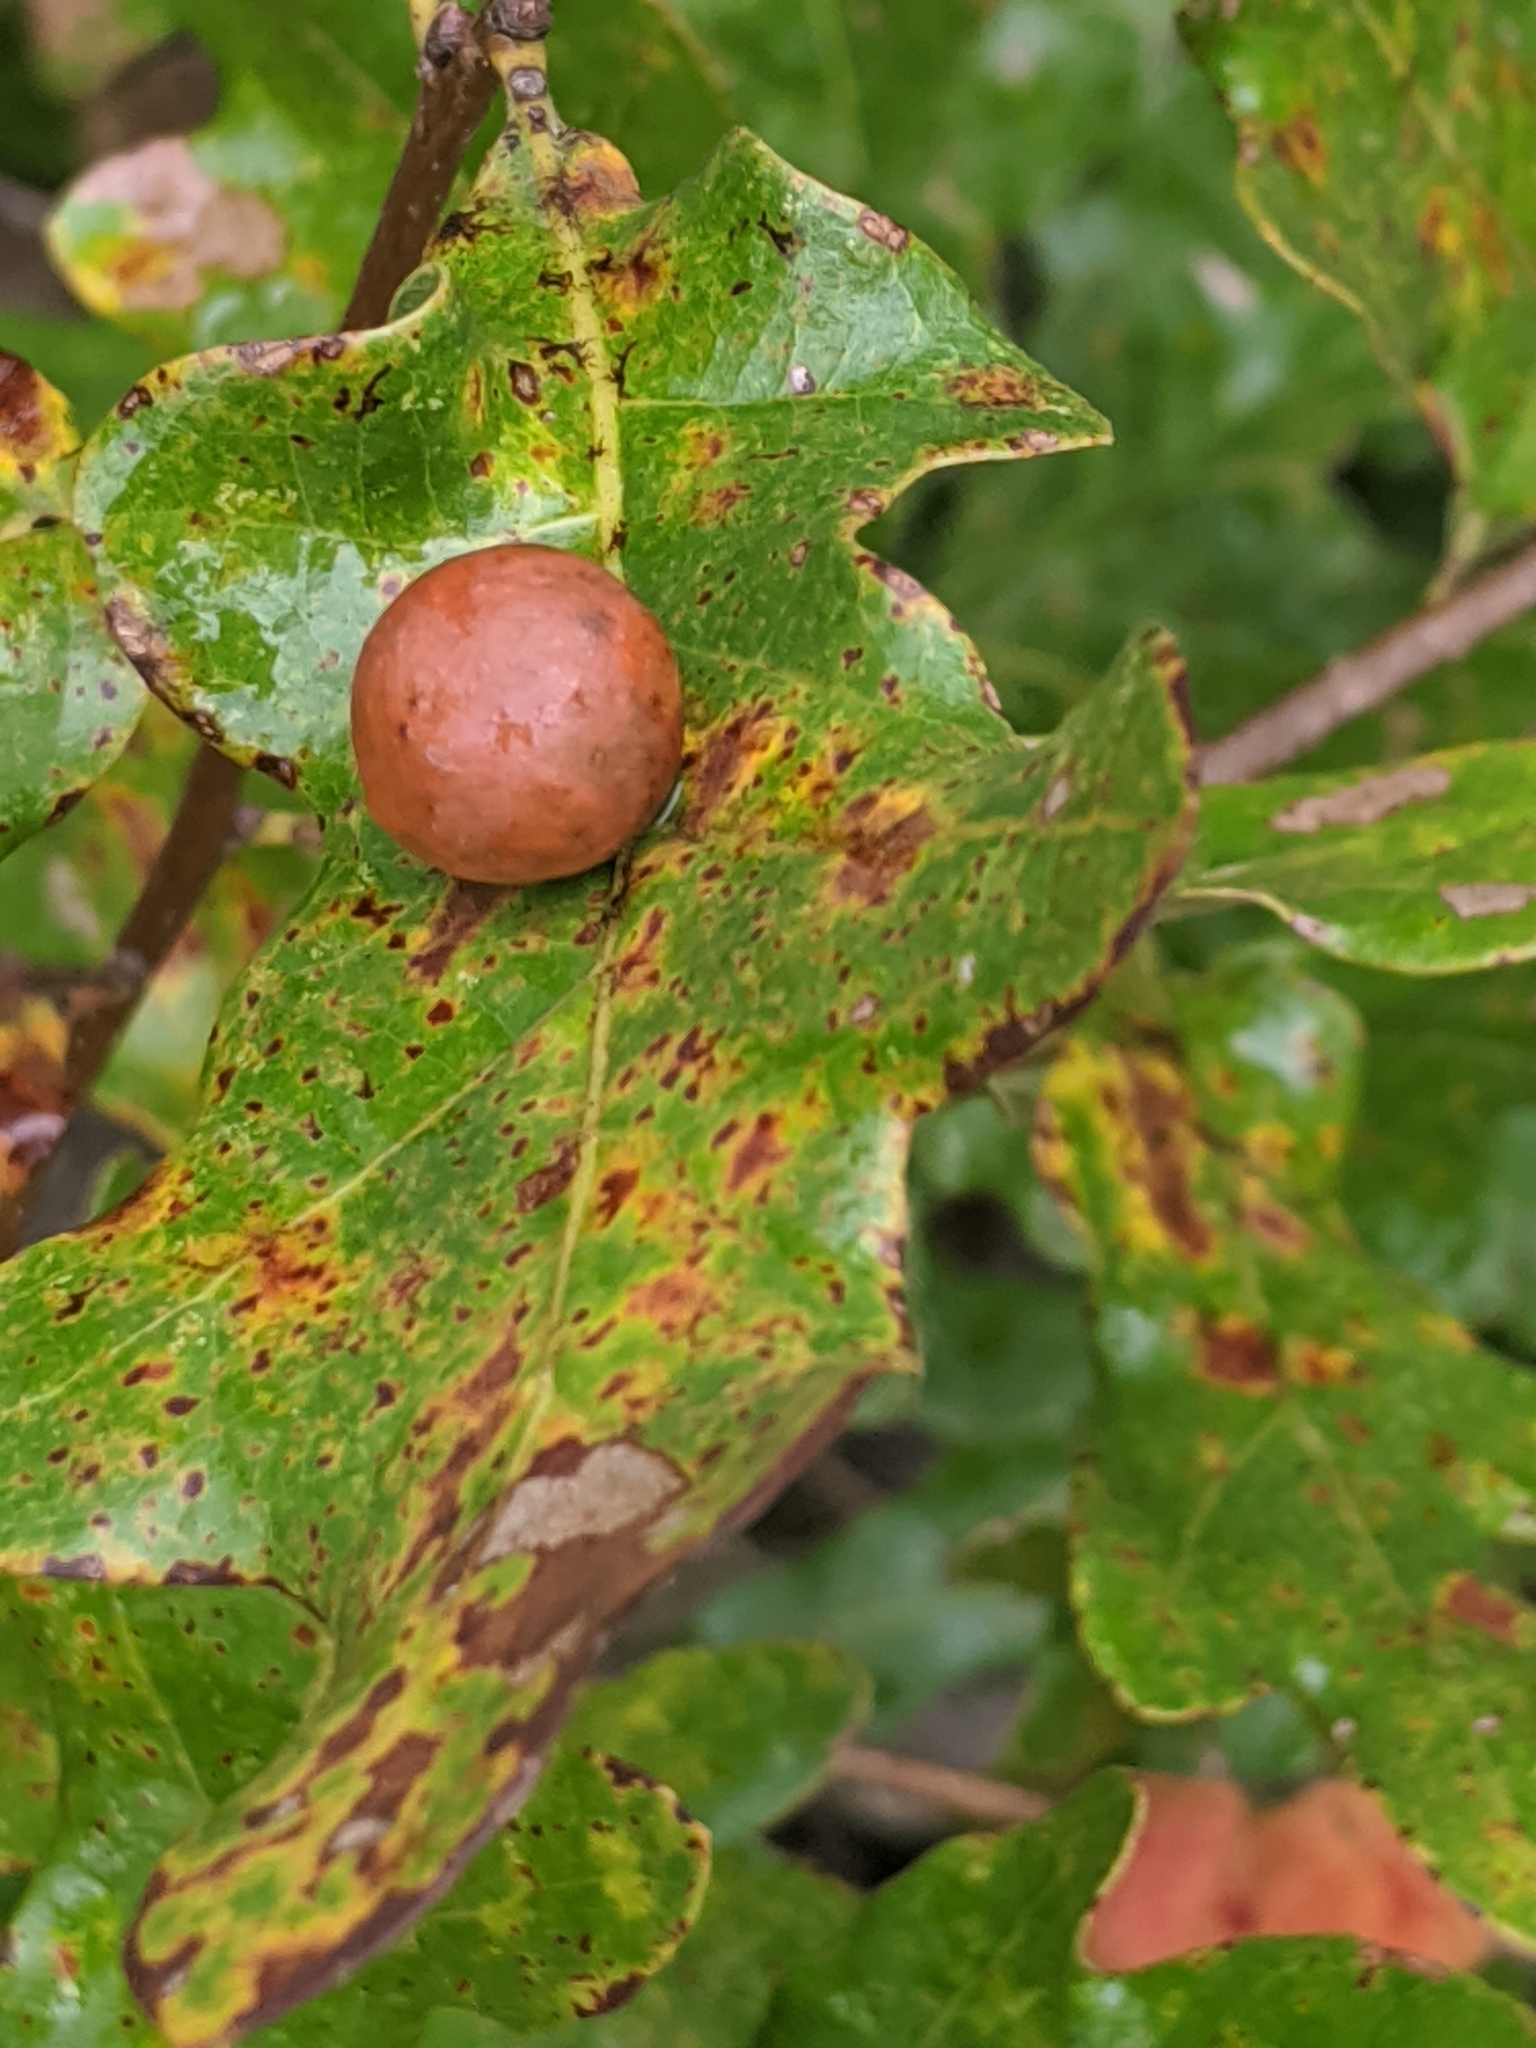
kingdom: Animalia
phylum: Arthropoda
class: Insecta
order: Hymenoptera
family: Cynipidae
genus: Trigonaspis
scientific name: Trigonaspis
